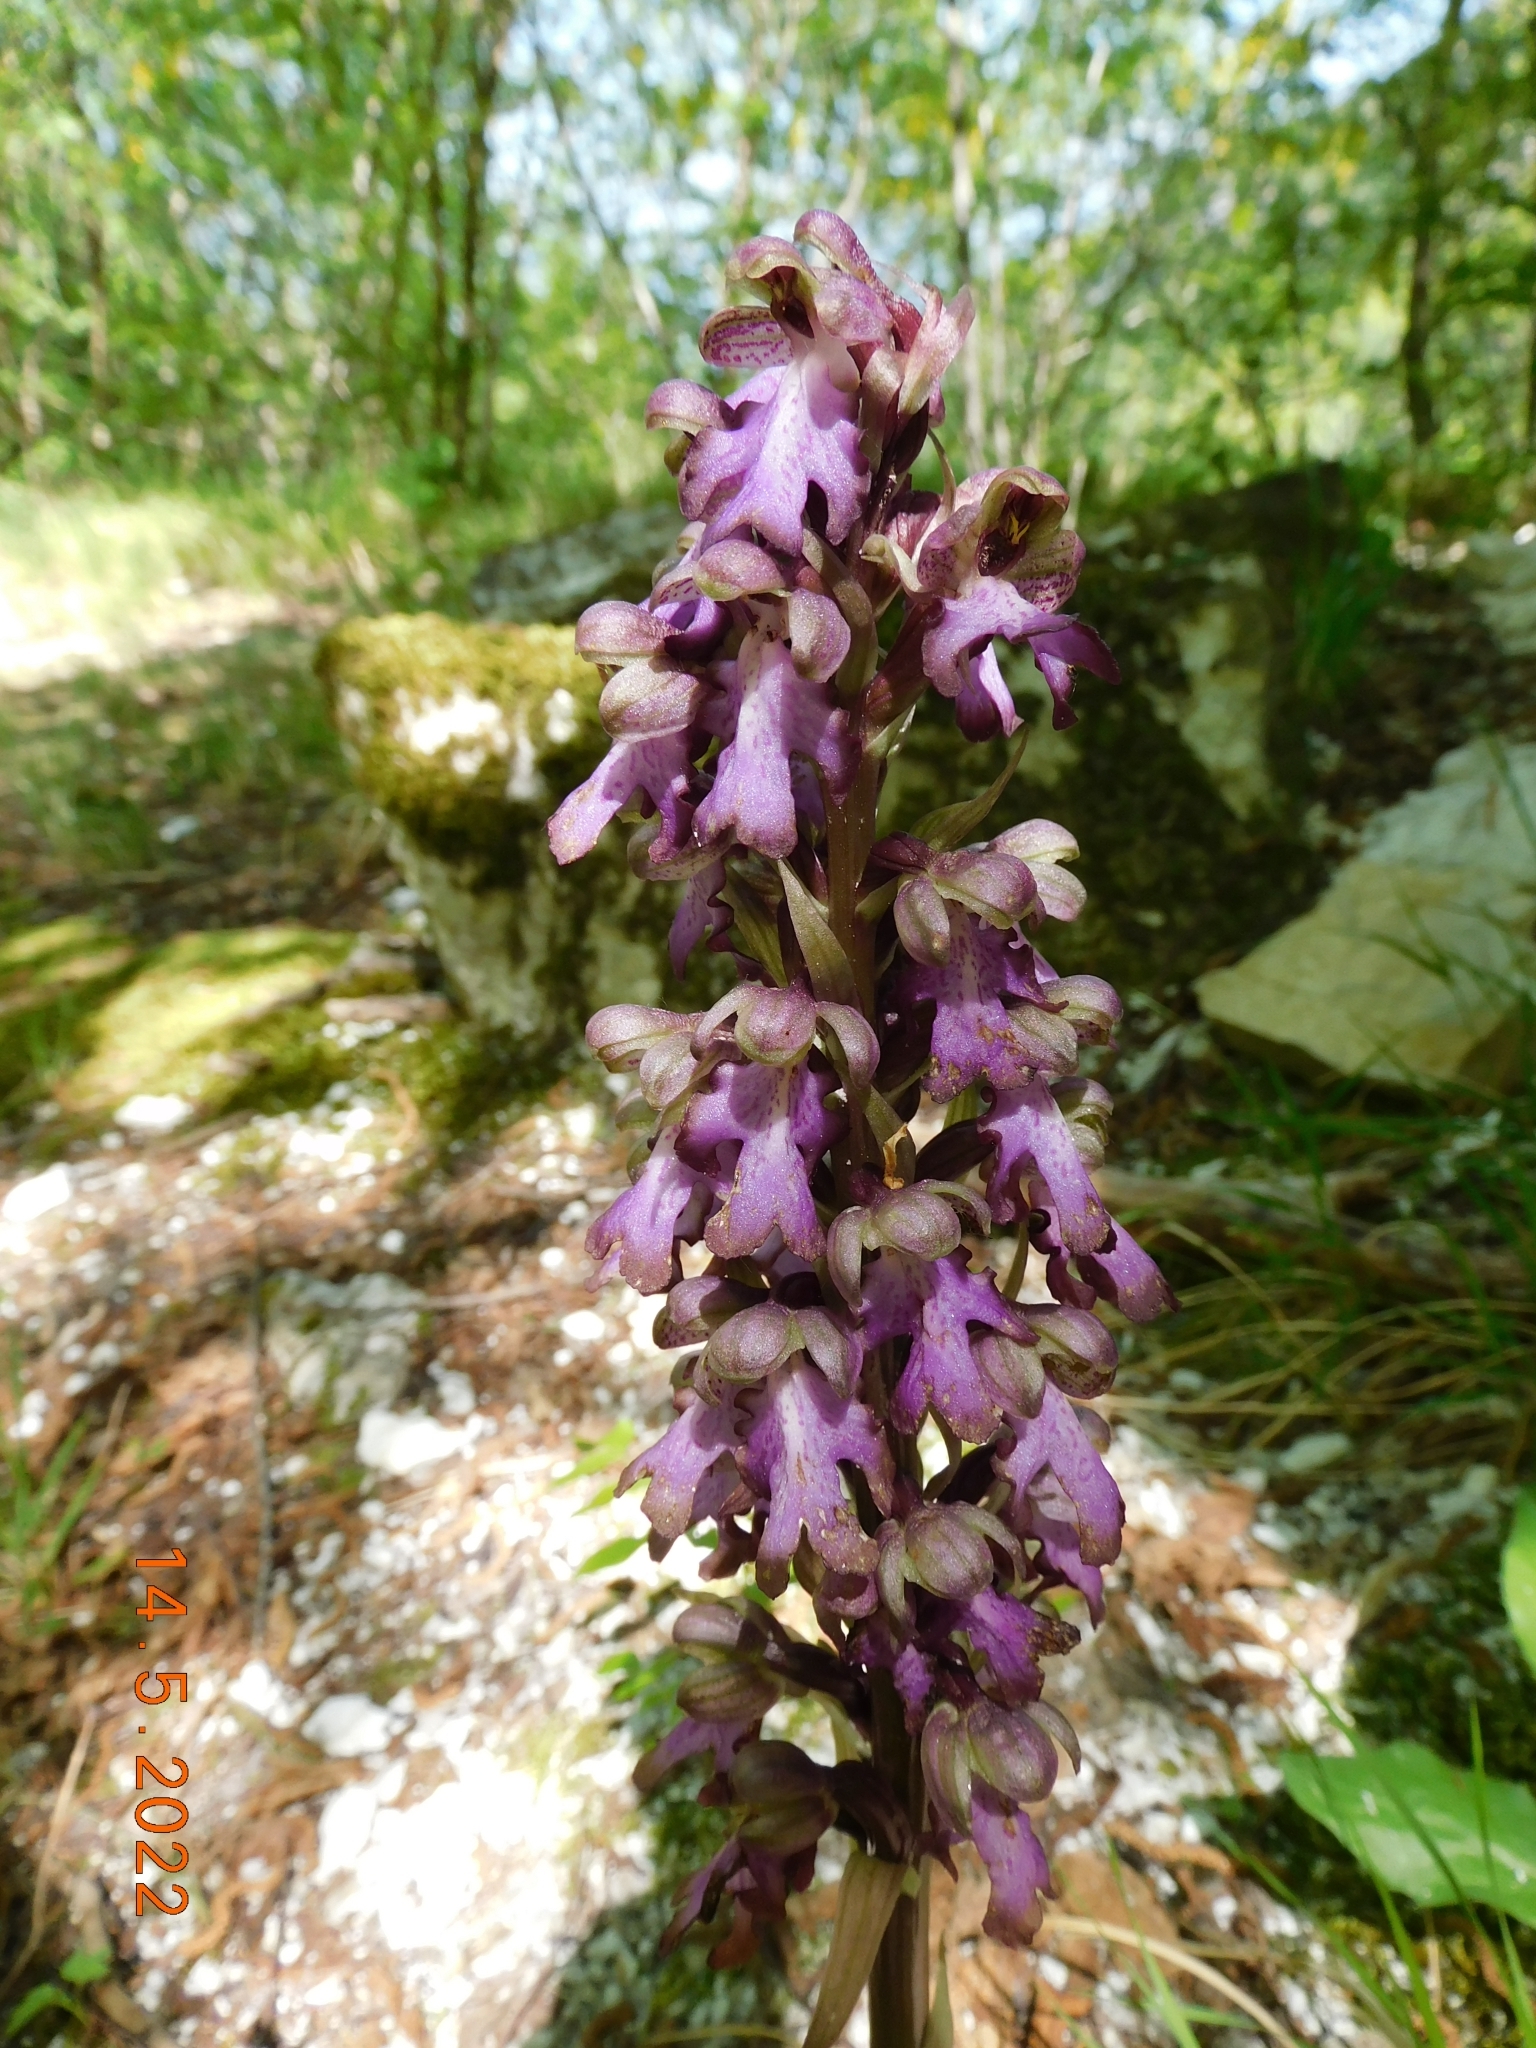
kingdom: Plantae
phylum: Tracheophyta
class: Liliopsida
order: Asparagales
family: Orchidaceae
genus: Himantoglossum
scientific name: Himantoglossum robertianum
